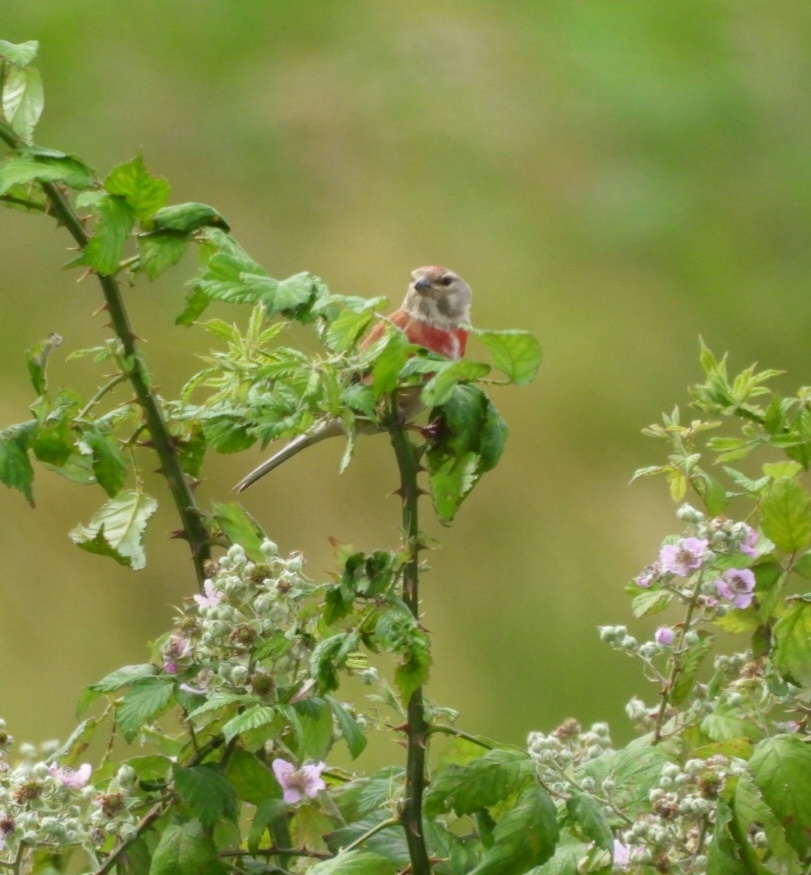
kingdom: Animalia
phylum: Chordata
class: Aves
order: Passeriformes
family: Fringillidae
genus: Linaria
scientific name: Linaria cannabina
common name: Common linnet
